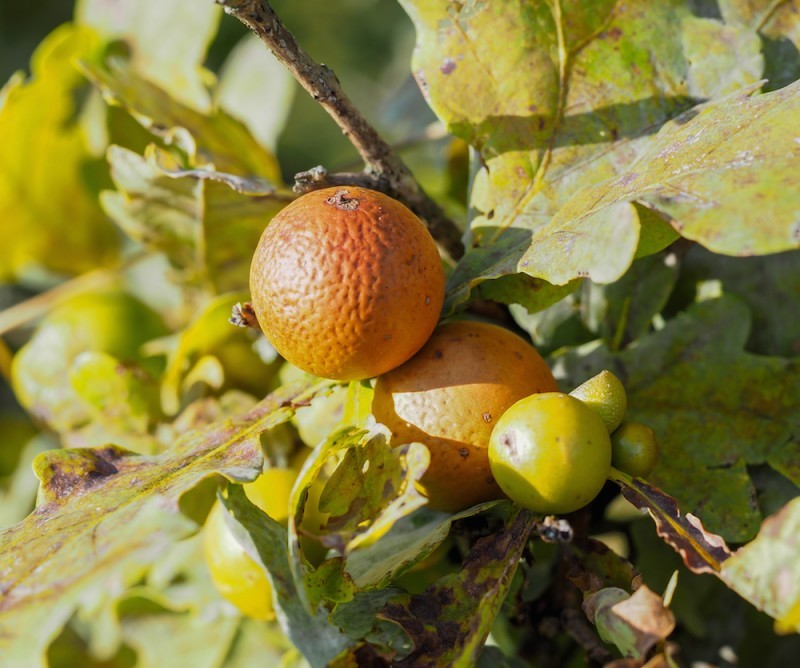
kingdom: Animalia
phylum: Arthropoda
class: Insecta
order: Hymenoptera
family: Cynipidae
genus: Andricus
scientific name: Andricus kollari
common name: Marble gall
